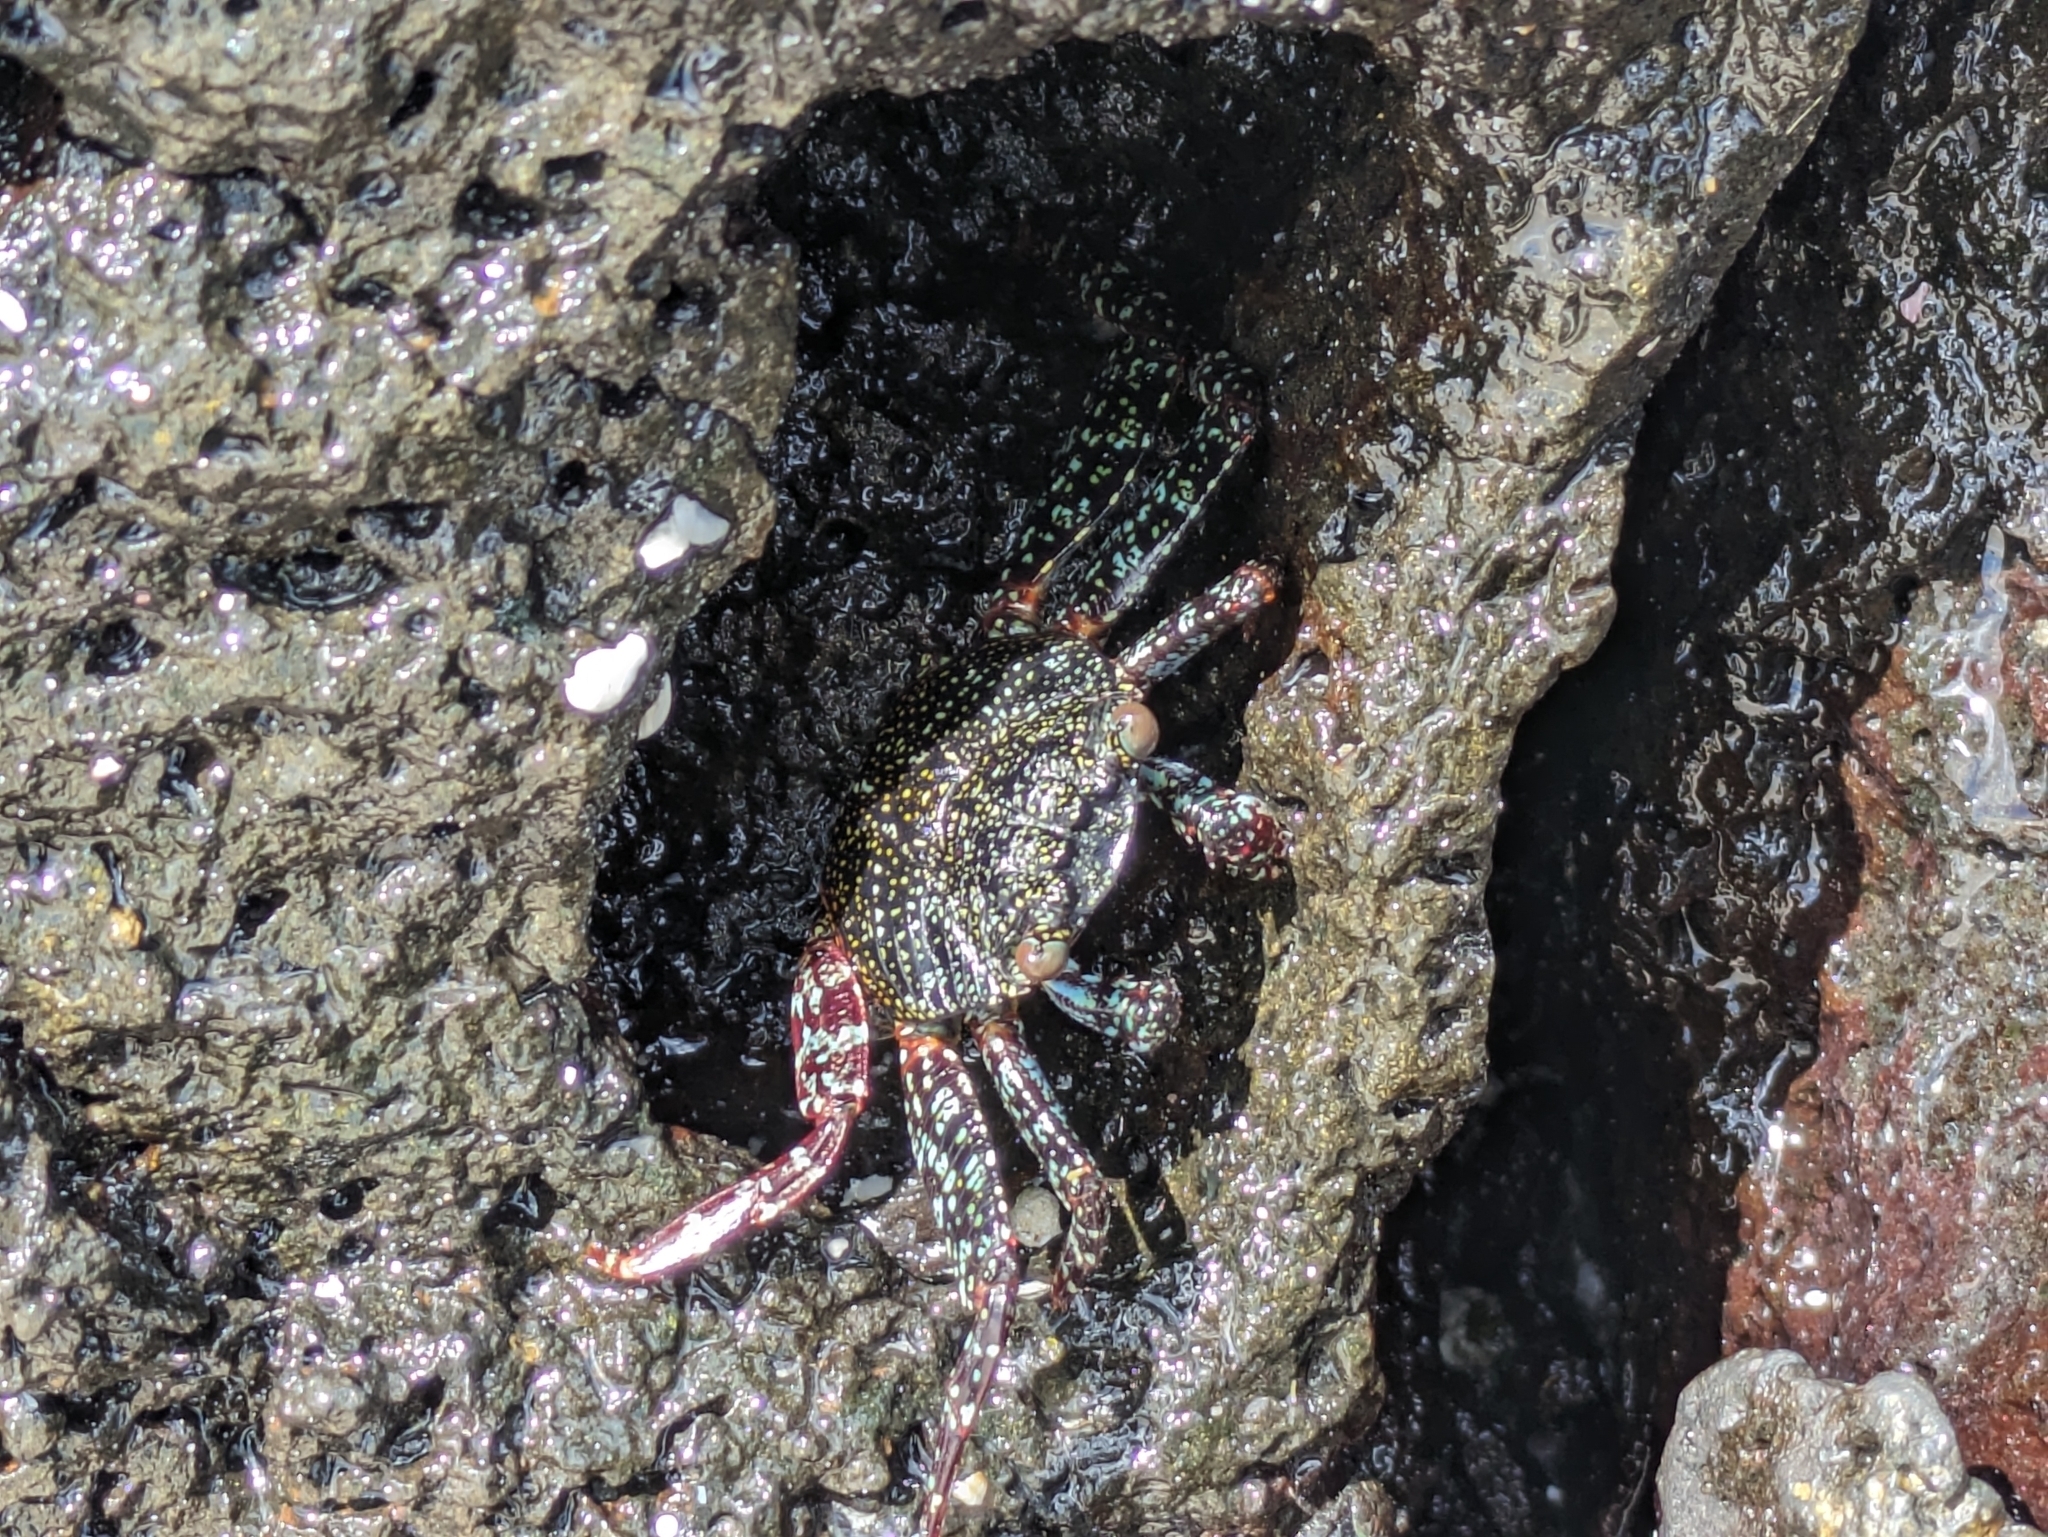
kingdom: Animalia
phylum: Arthropoda
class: Malacostraca
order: Decapoda
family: Grapsidae
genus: Grapsus
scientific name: Grapsus grapsus
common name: Sally lightfoot
